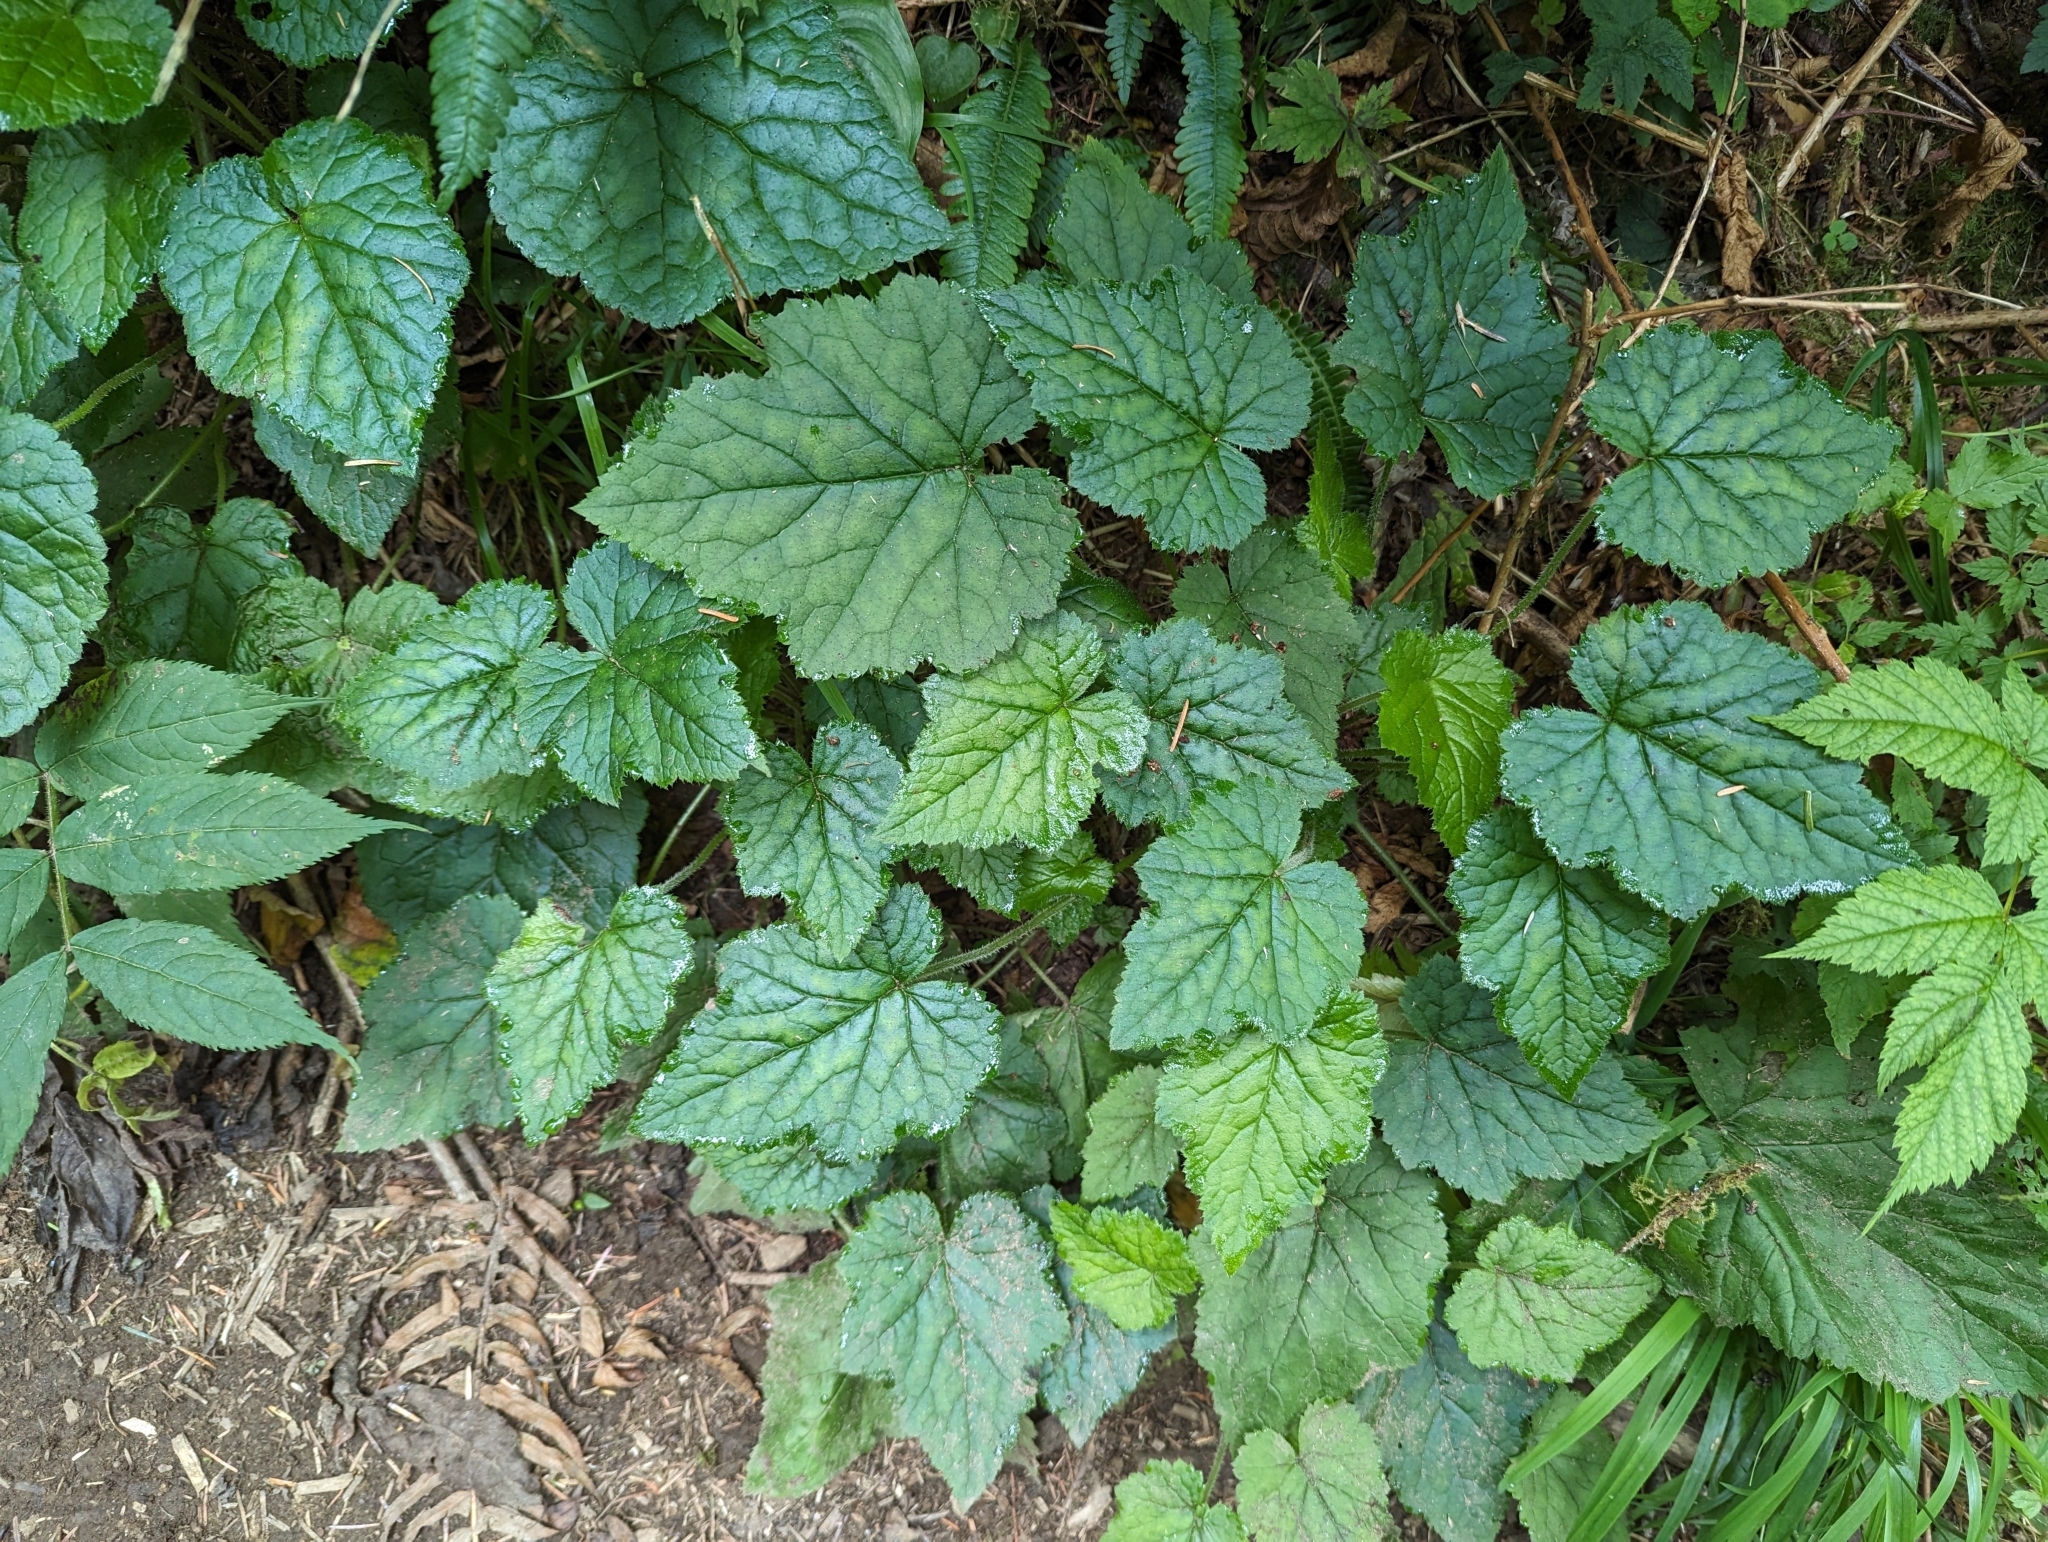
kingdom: Plantae
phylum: Tracheophyta
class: Magnoliopsida
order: Saxifragales
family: Saxifragaceae
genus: Tolmiea
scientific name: Tolmiea menziesii
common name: Pick-a-back-plant
